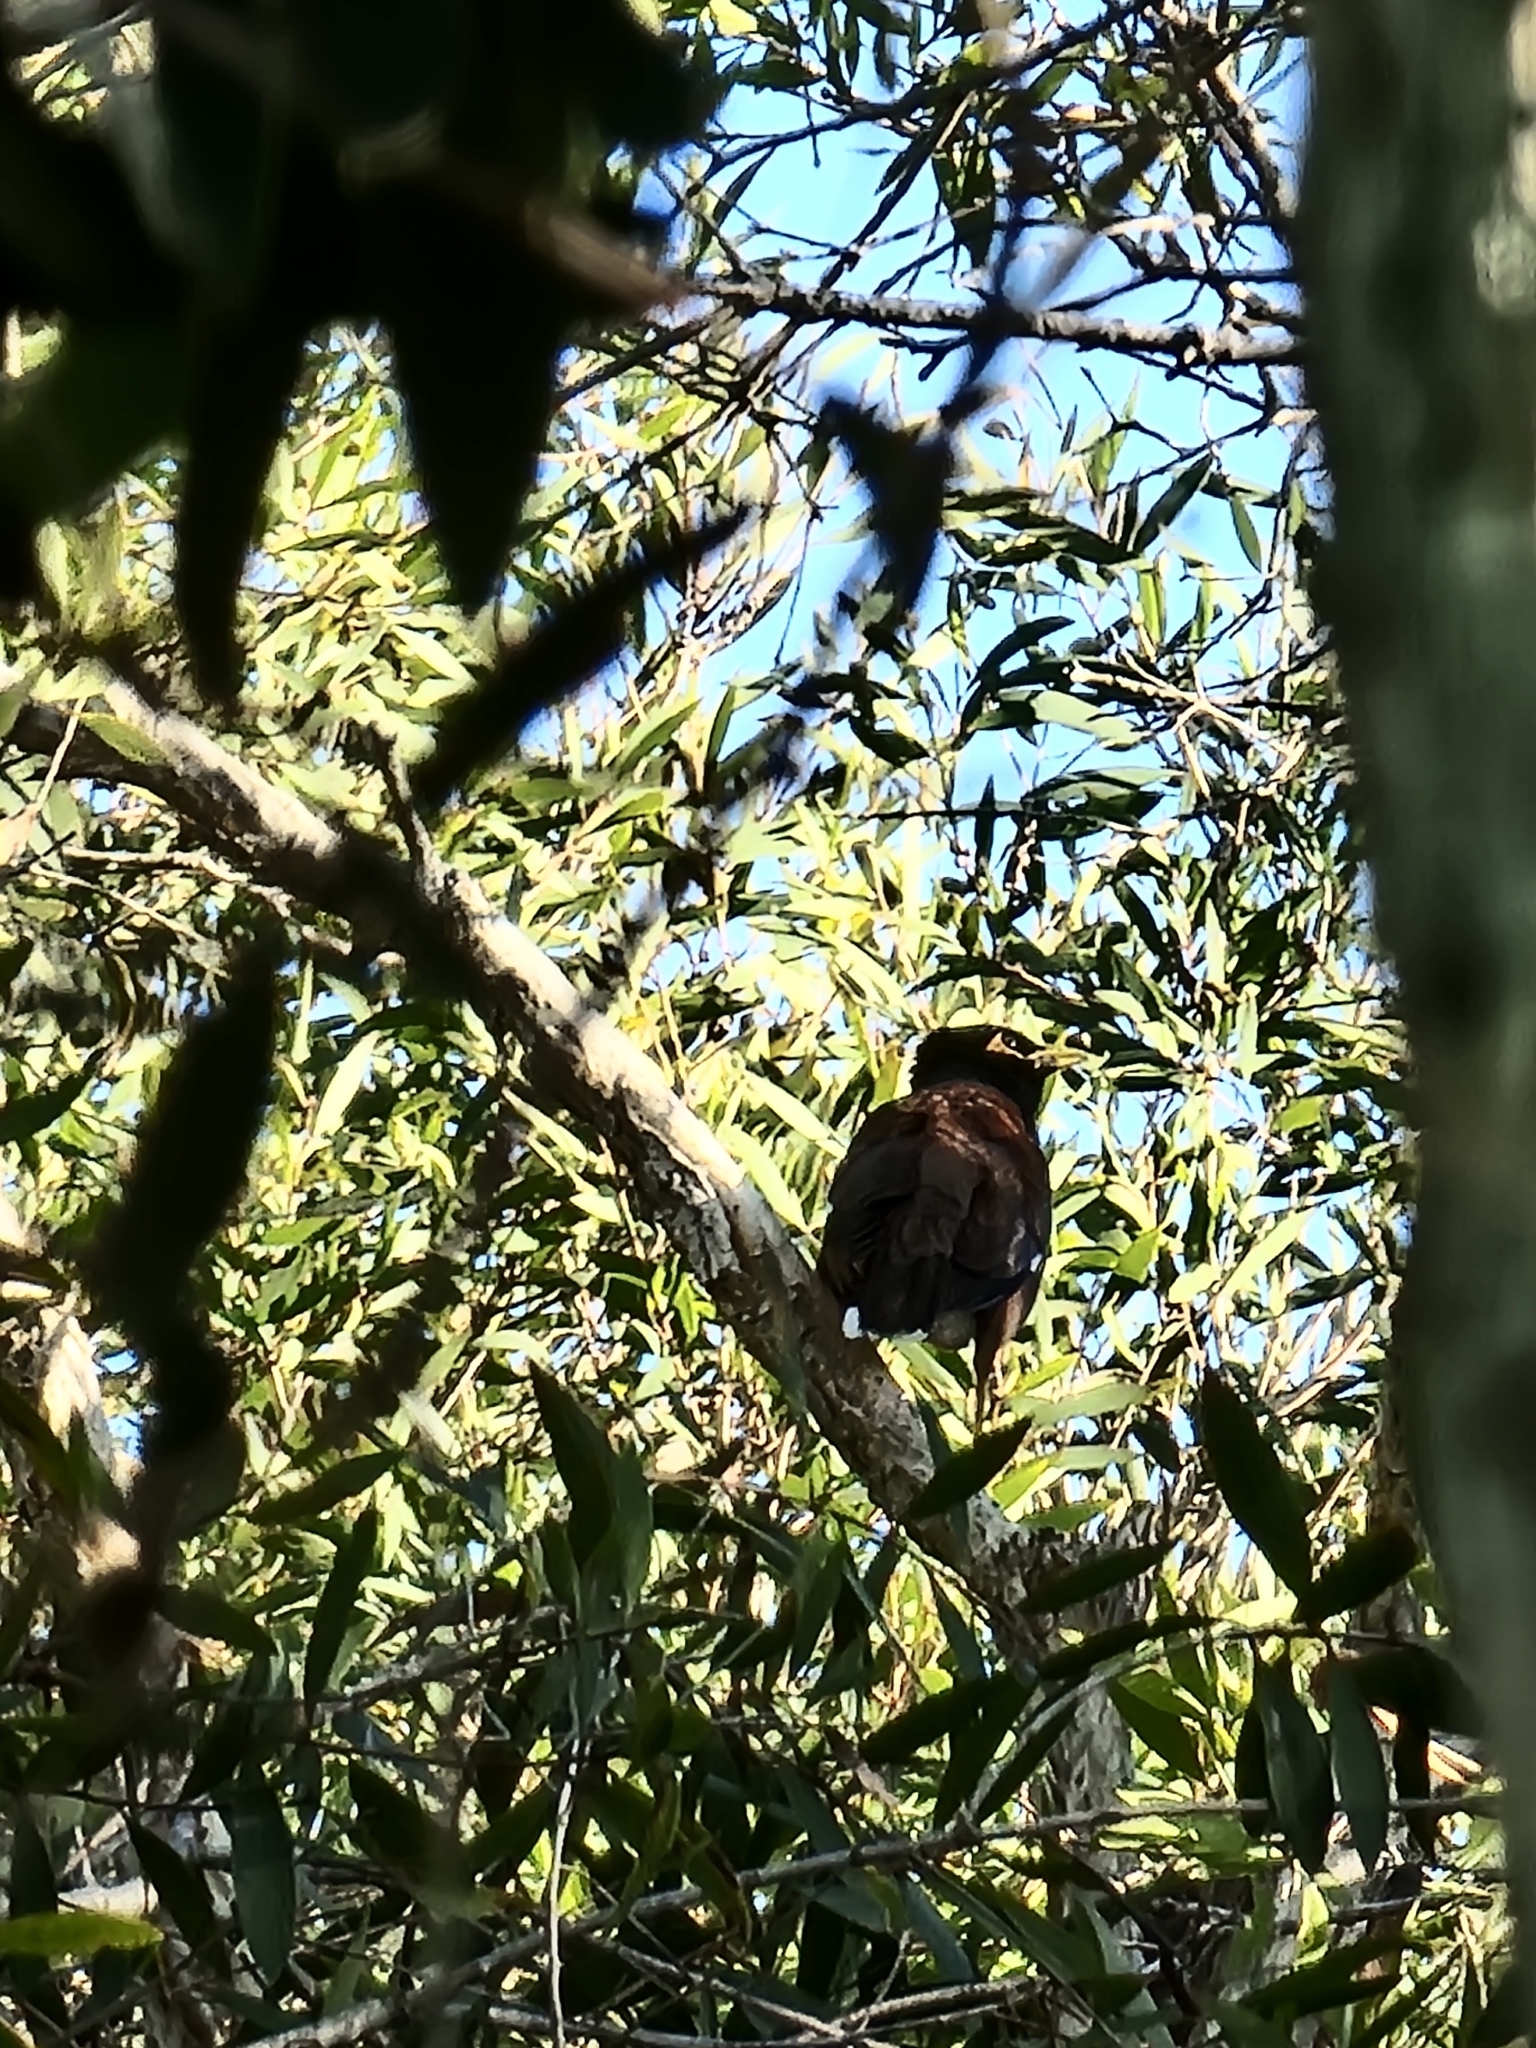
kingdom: Animalia
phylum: Chordata
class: Aves
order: Passeriformes
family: Sturnidae
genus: Acridotheres
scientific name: Acridotheres tristis
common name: Common myna
